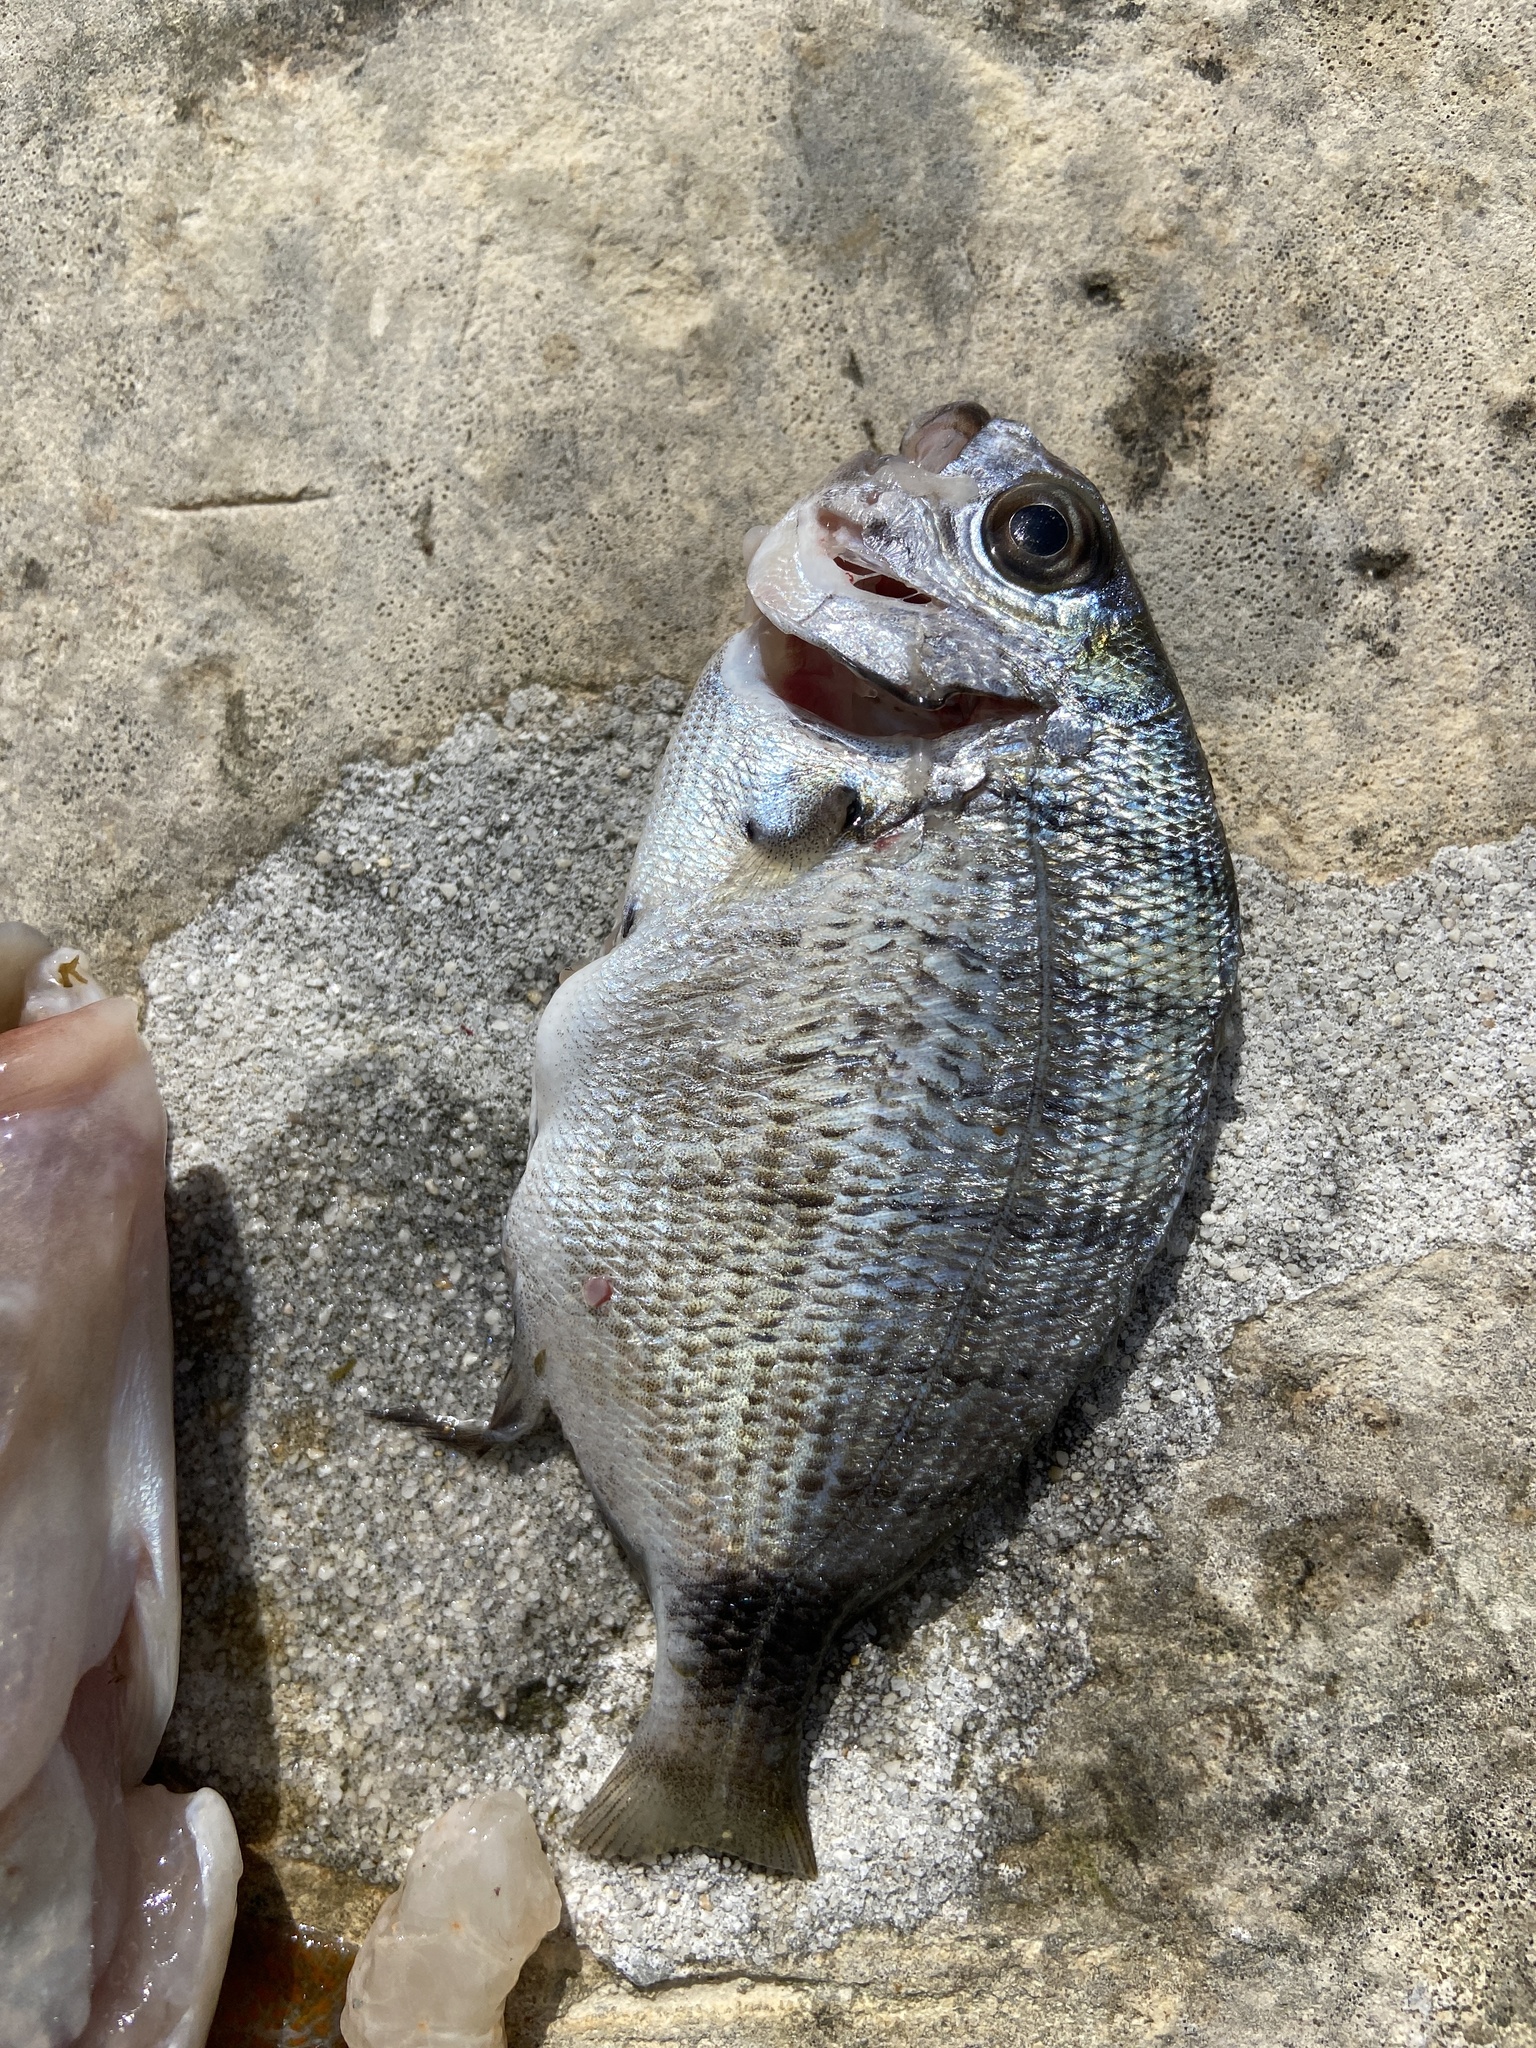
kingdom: Animalia
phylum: Chordata
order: Perciformes
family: Sparidae
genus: Diplodus
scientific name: Diplodus sargus
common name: White seabream
